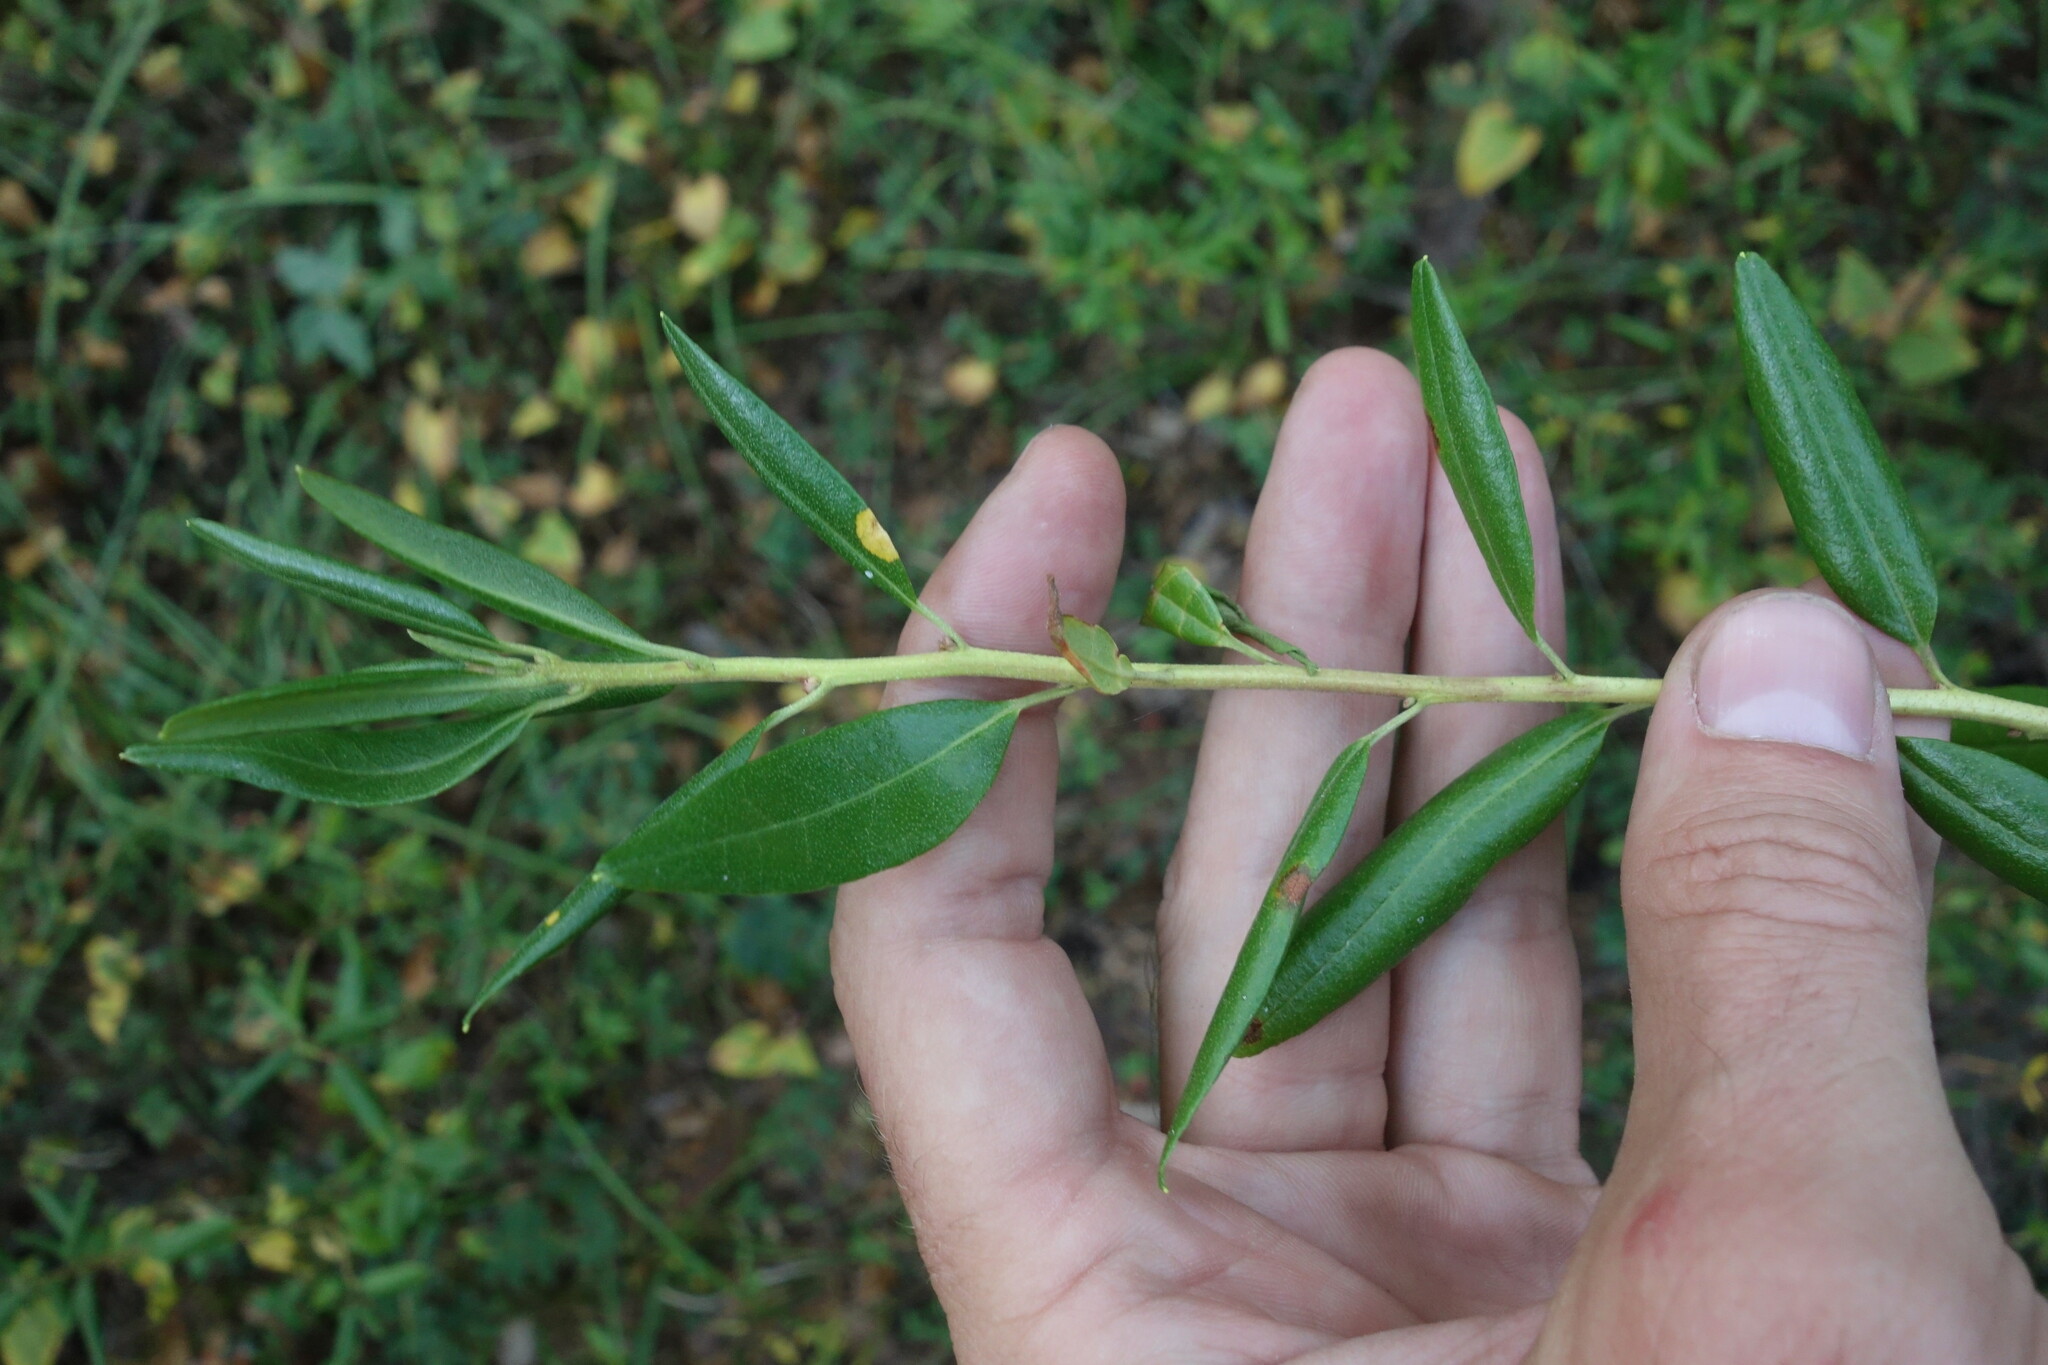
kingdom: Plantae
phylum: Tracheophyta
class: Magnoliopsida
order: Ericales
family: Ericaceae
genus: Rhododendron
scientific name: Rhododendron dauricum
